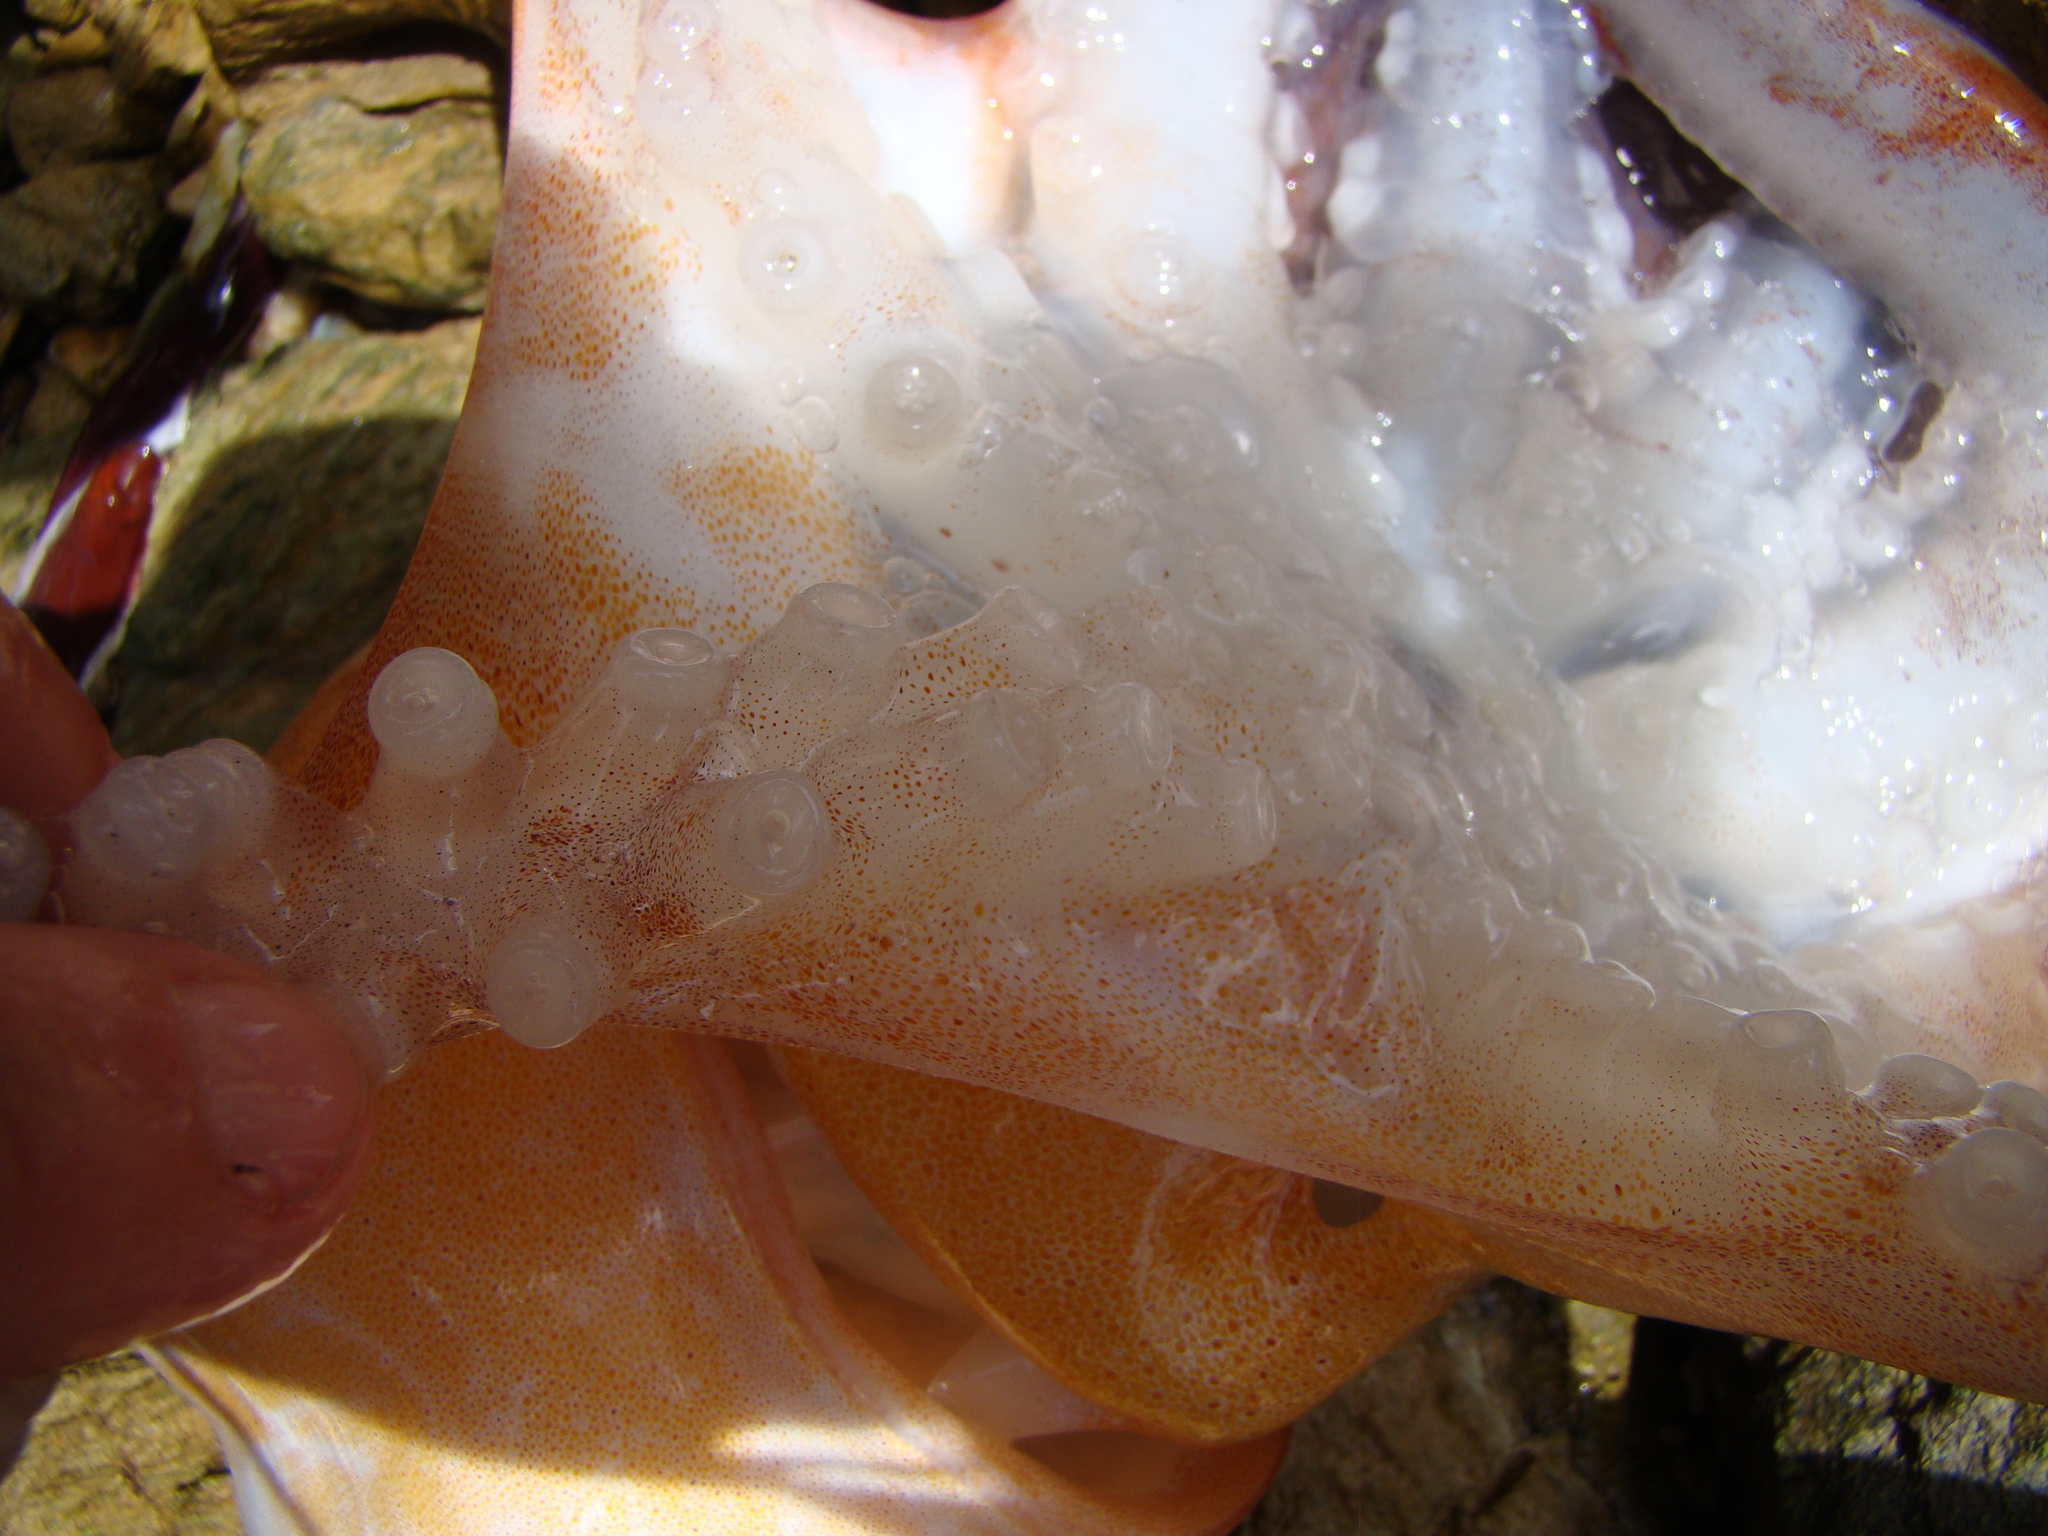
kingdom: Animalia
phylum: Mollusca
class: Cephalopoda
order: Octopoda
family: Tremoctopodidae
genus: Tremoctopus
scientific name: Tremoctopus robsonianus
